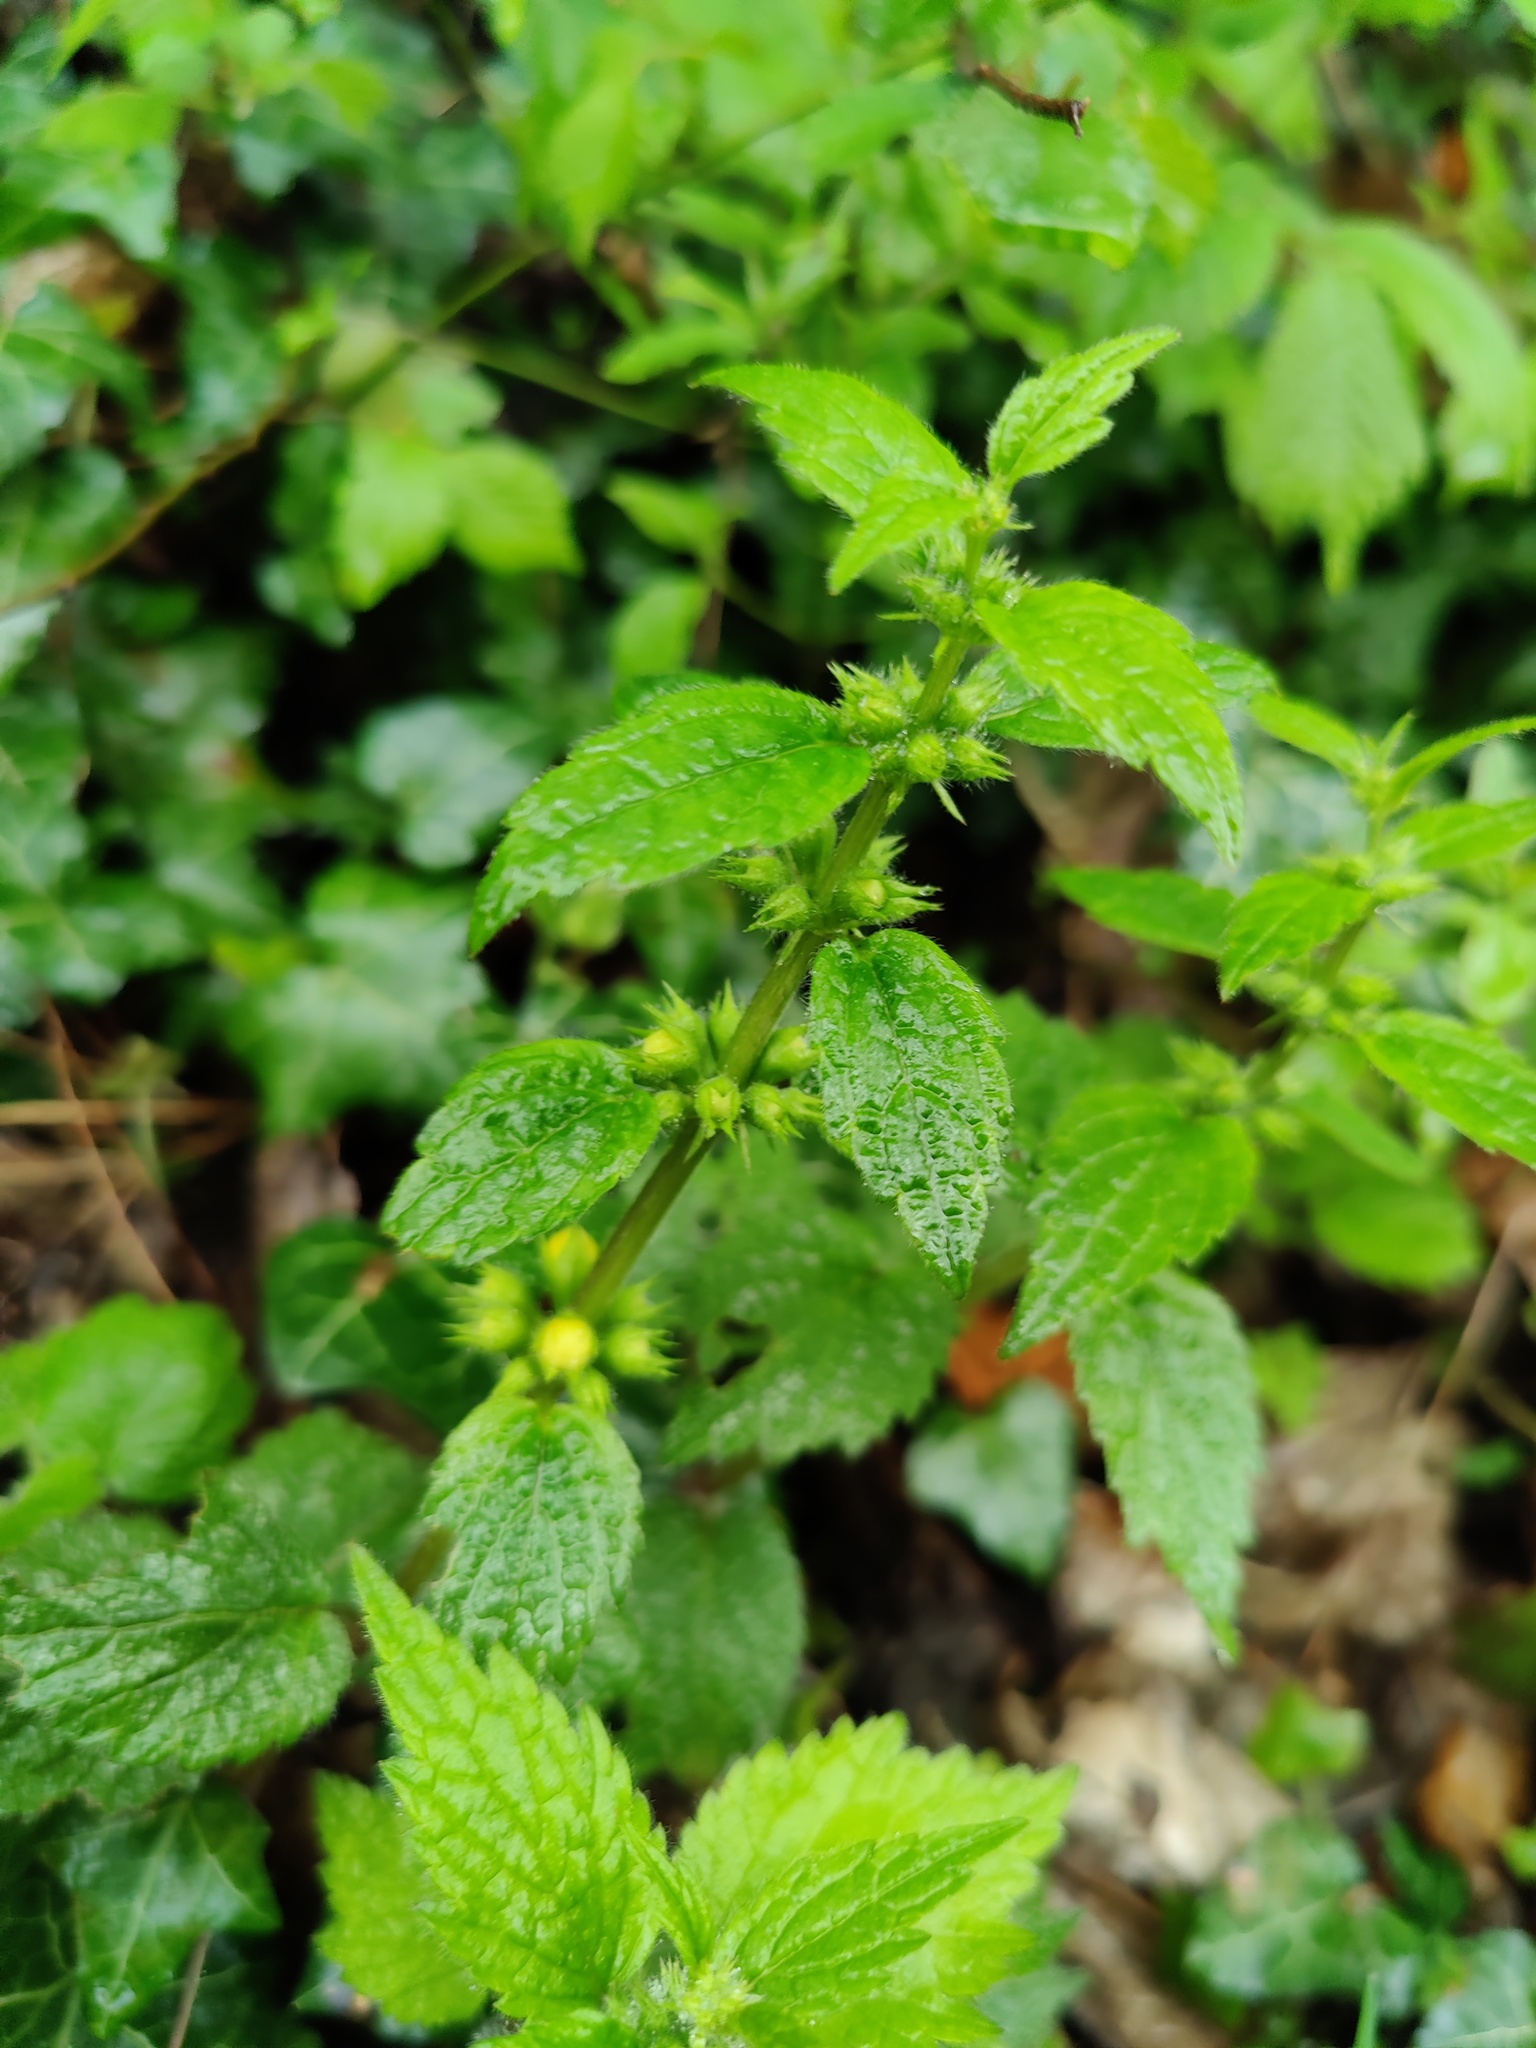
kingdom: Plantae
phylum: Tracheophyta
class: Magnoliopsida
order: Lamiales
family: Lamiaceae
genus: Lamium
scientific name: Lamium galeobdolon
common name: Yellow archangel
